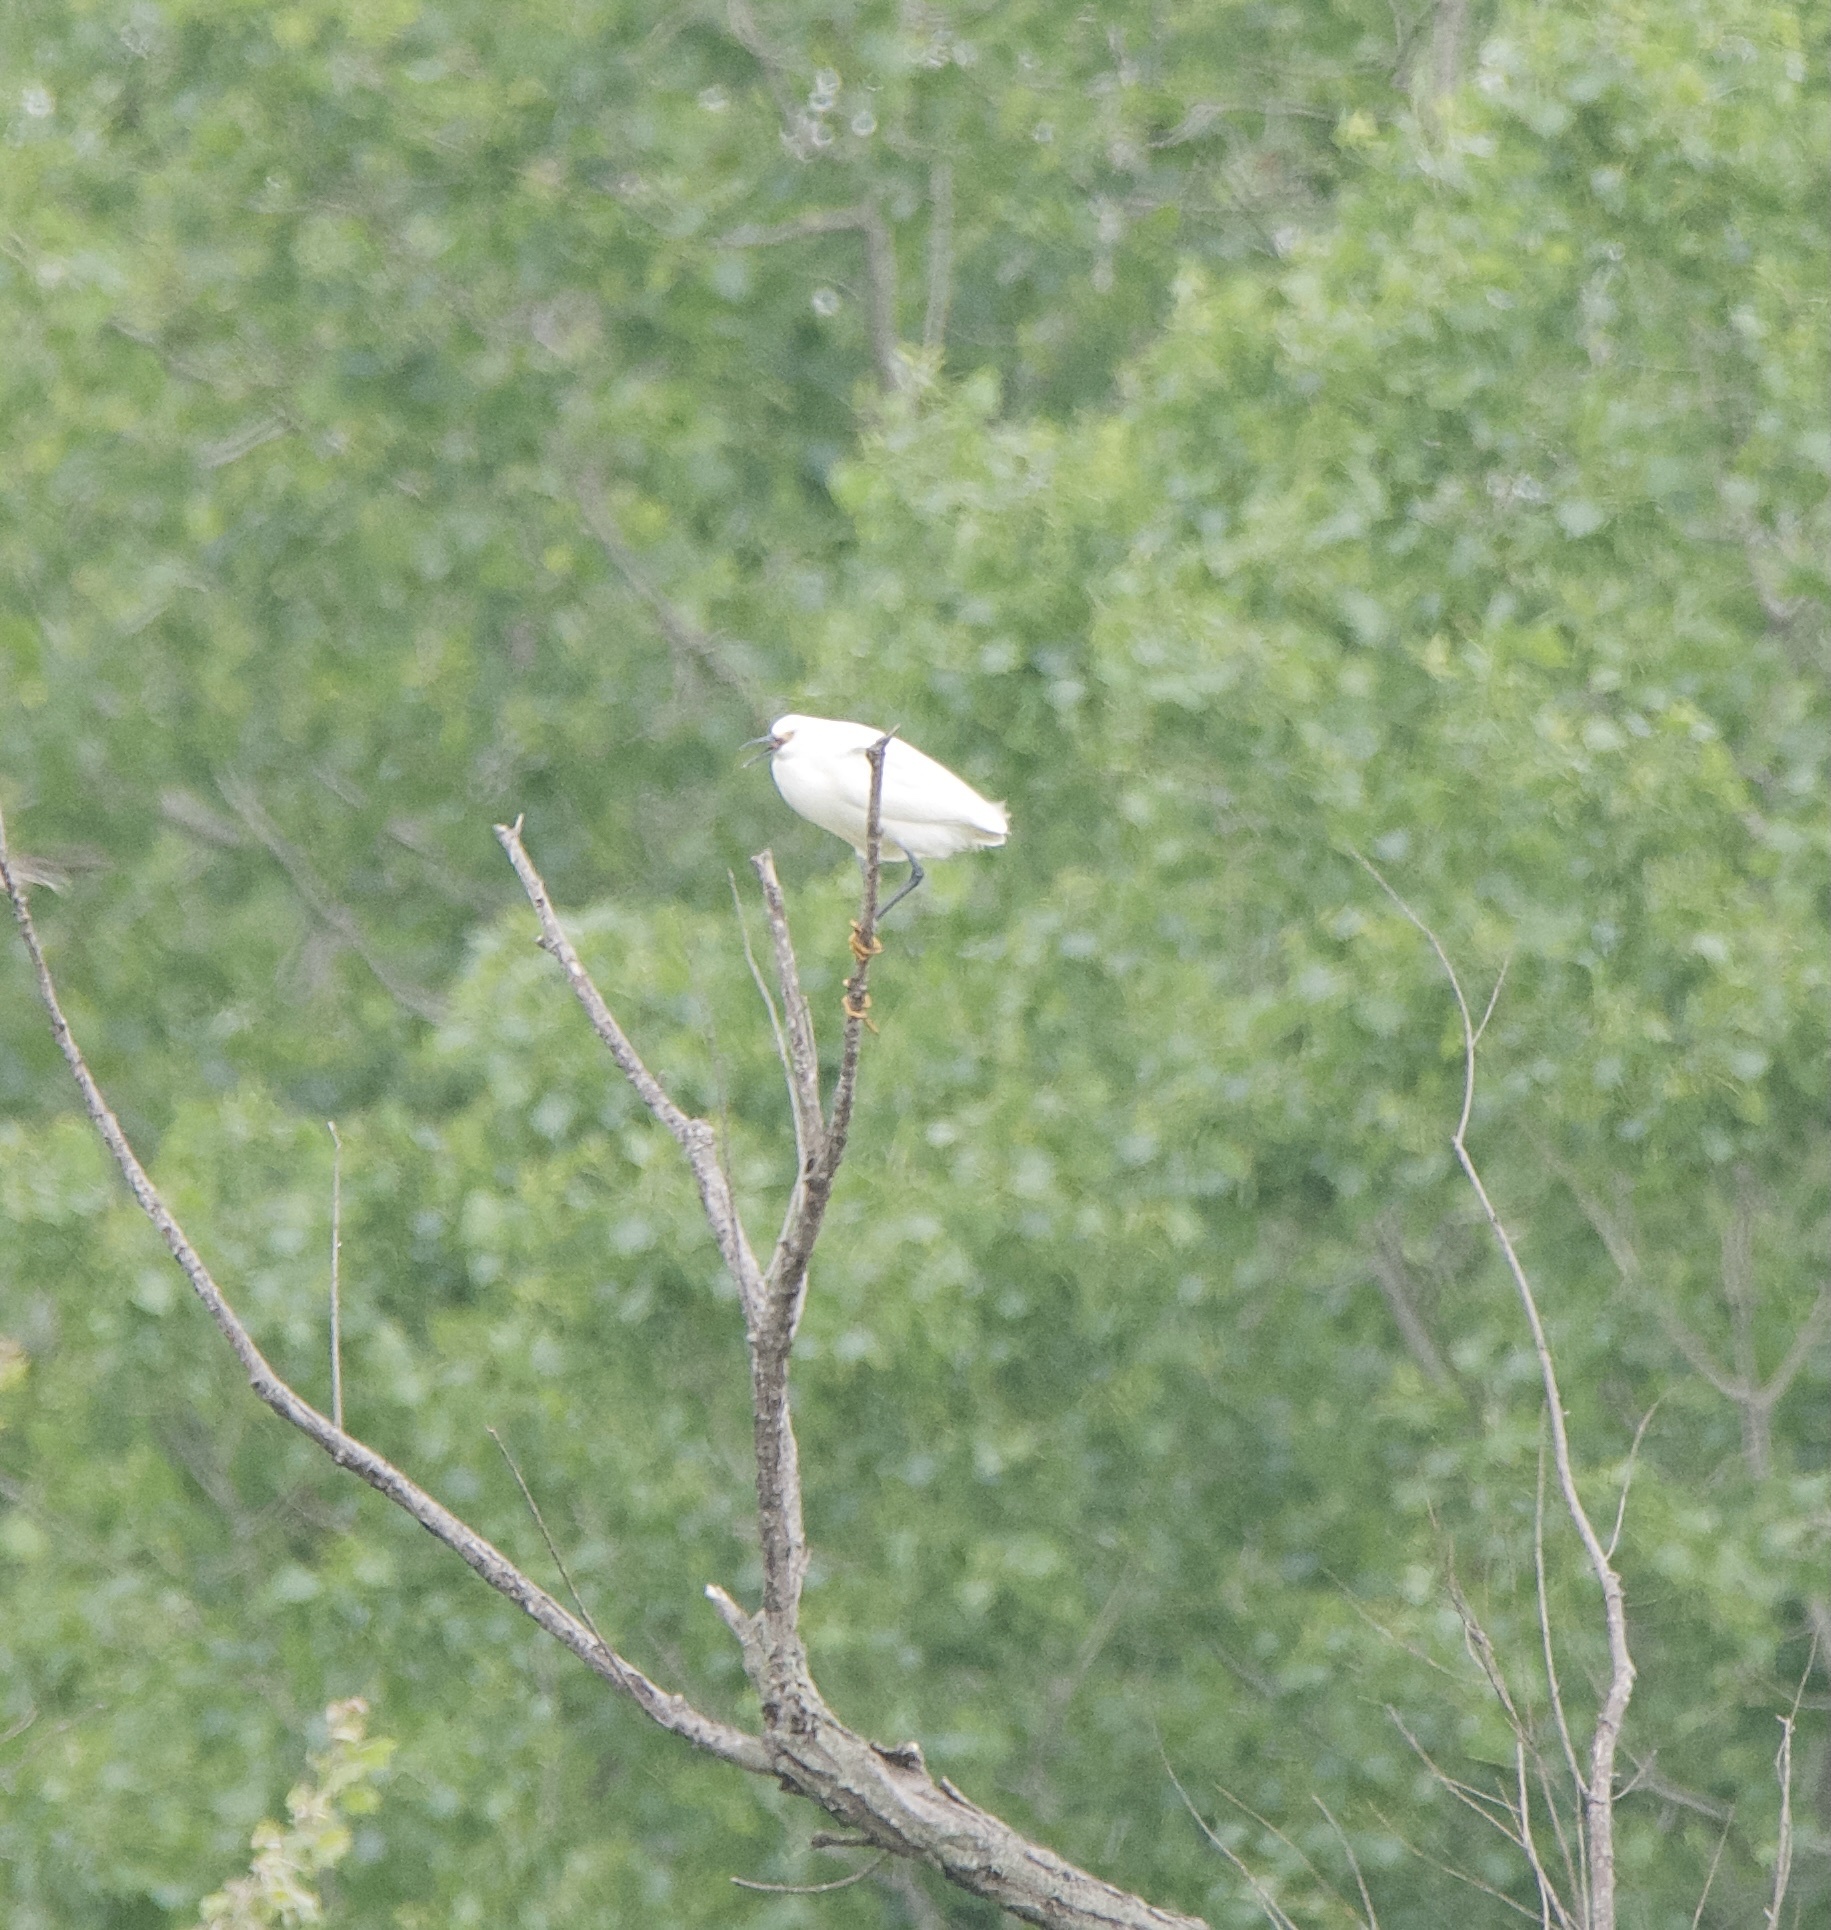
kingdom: Animalia
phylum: Chordata
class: Aves
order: Pelecaniformes
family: Ardeidae
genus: Egretta
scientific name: Egretta thula
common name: Snowy egret
